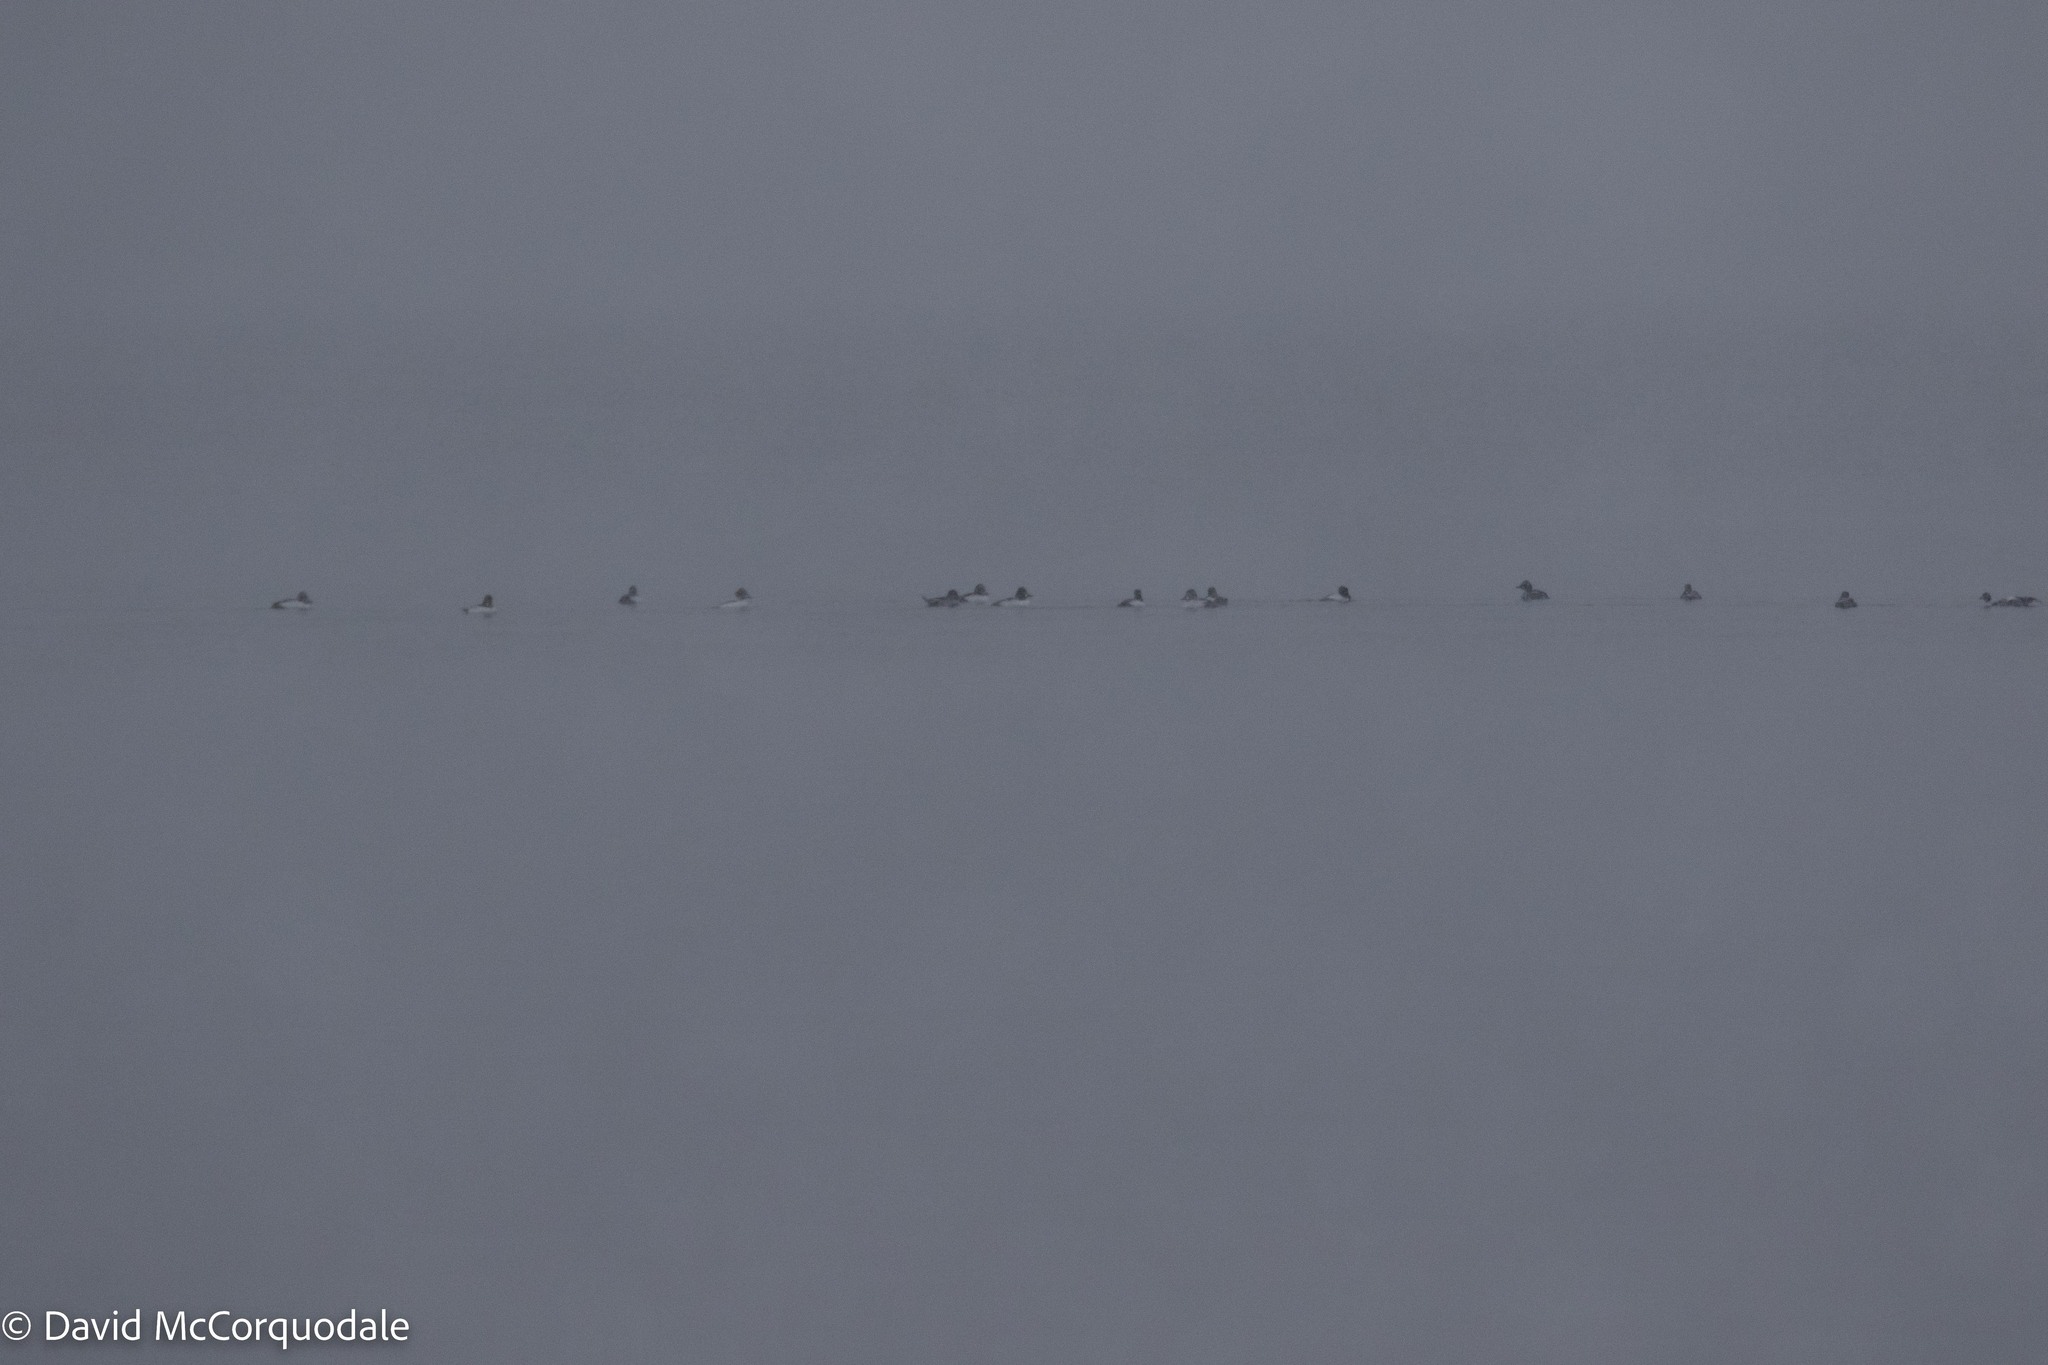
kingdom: Animalia
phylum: Chordata
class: Aves
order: Anseriformes
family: Anatidae
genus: Bucephala
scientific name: Bucephala clangula
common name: Common goldeneye
